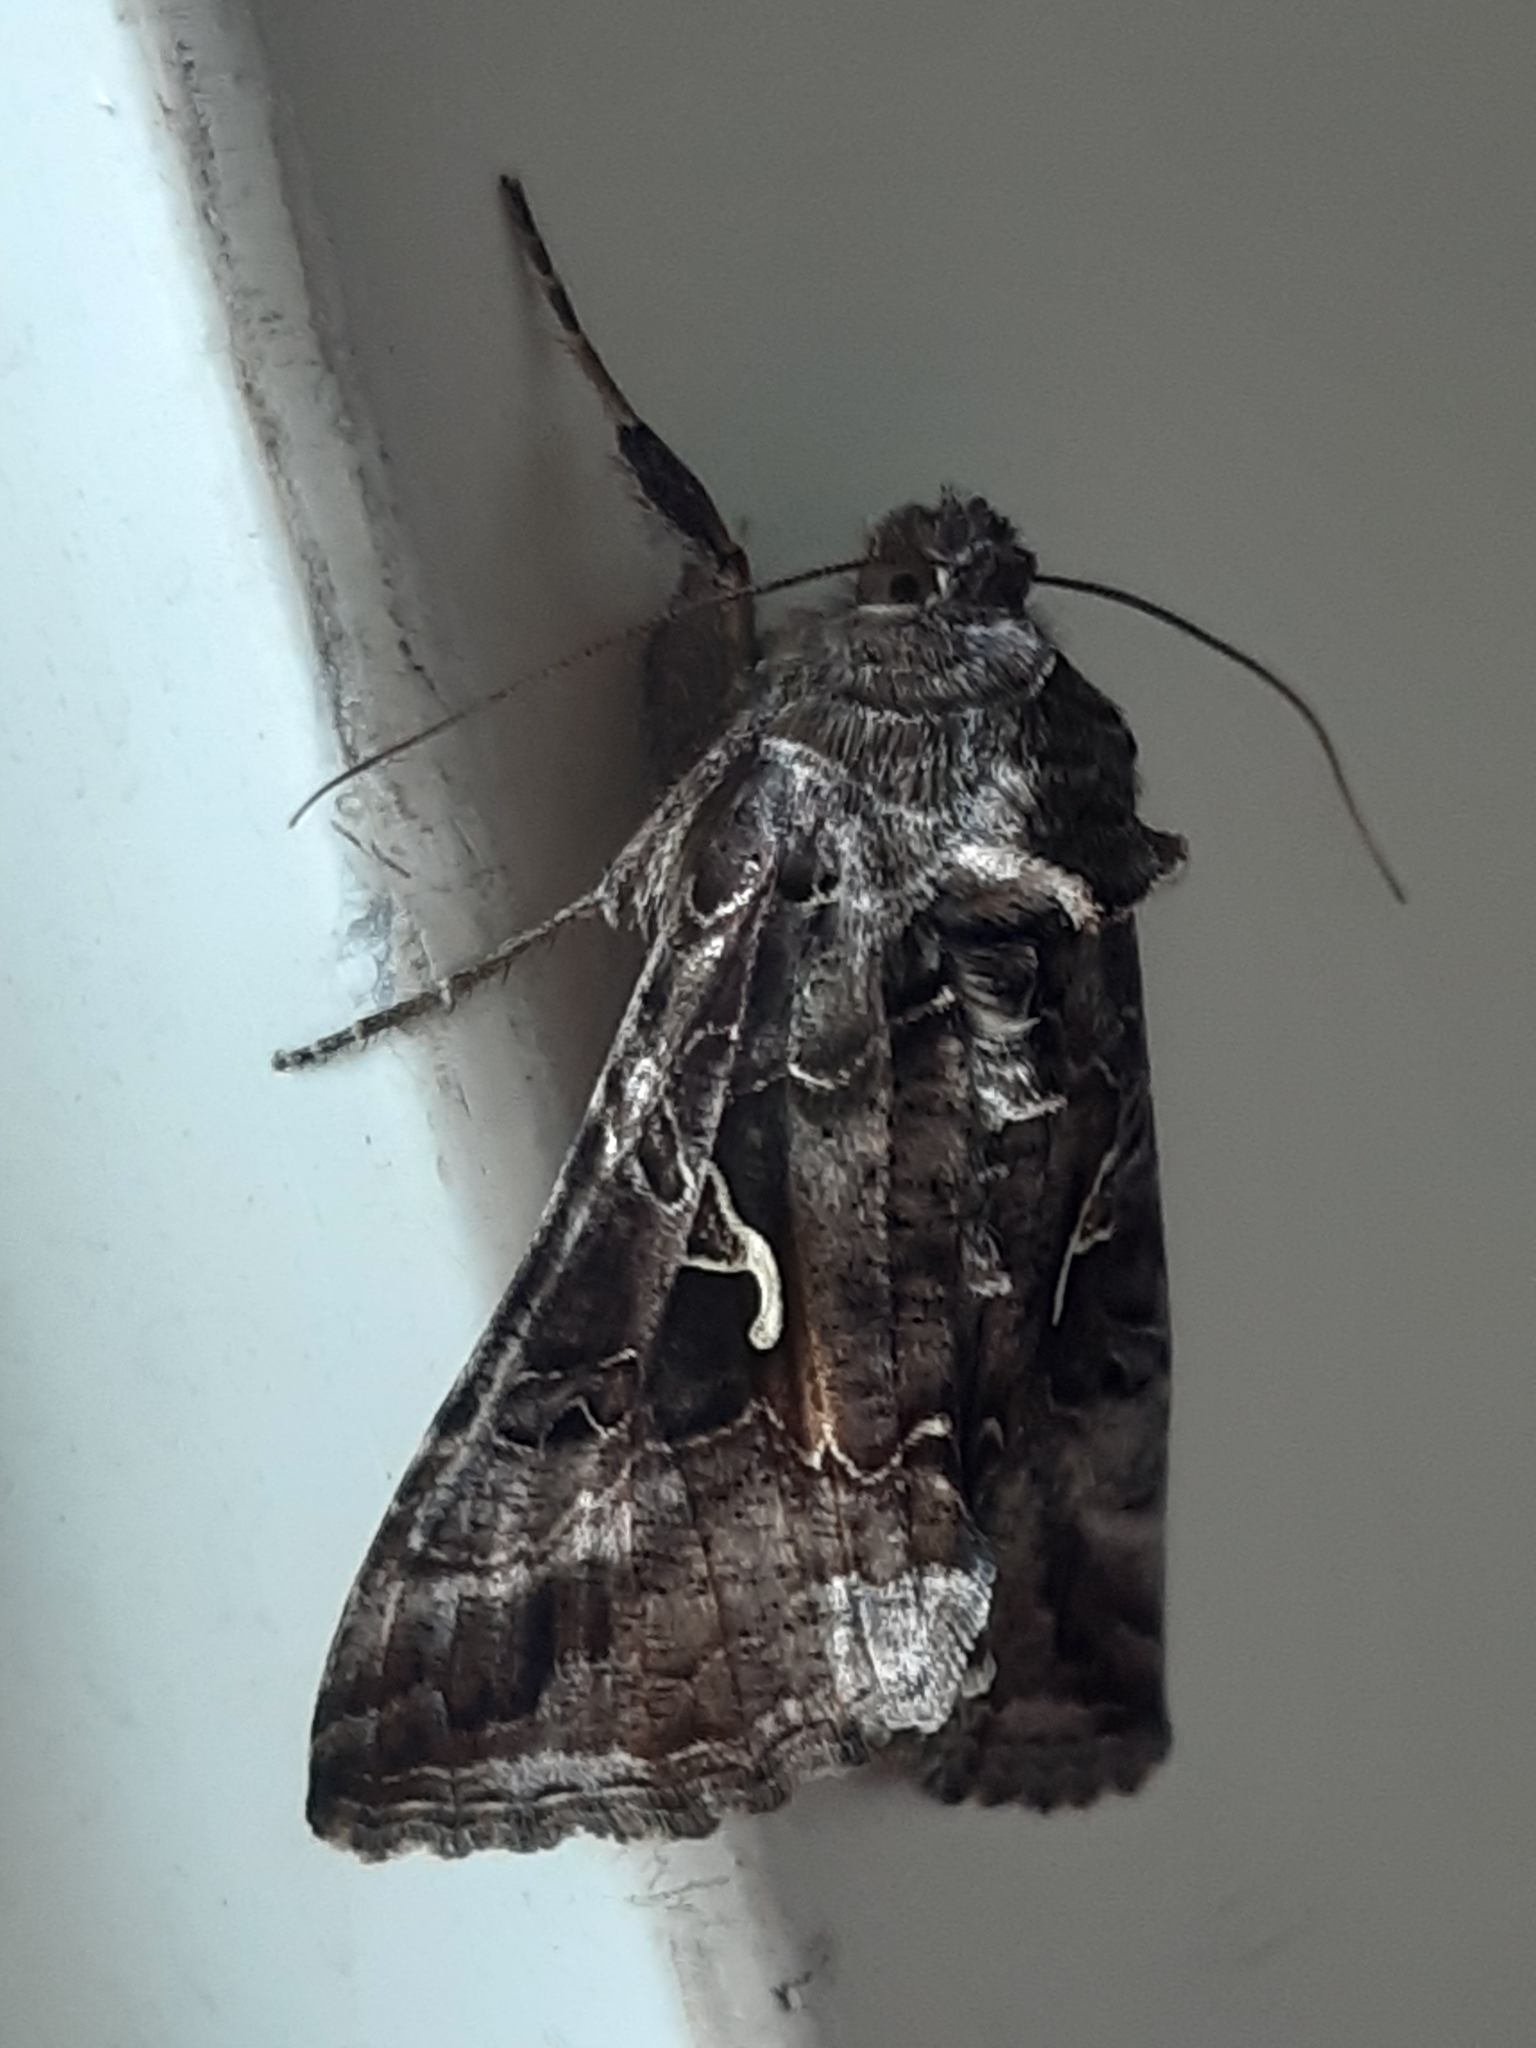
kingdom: Animalia
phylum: Arthropoda
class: Insecta
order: Lepidoptera
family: Noctuidae
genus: Autographa
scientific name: Autographa gamma
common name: Silver y
